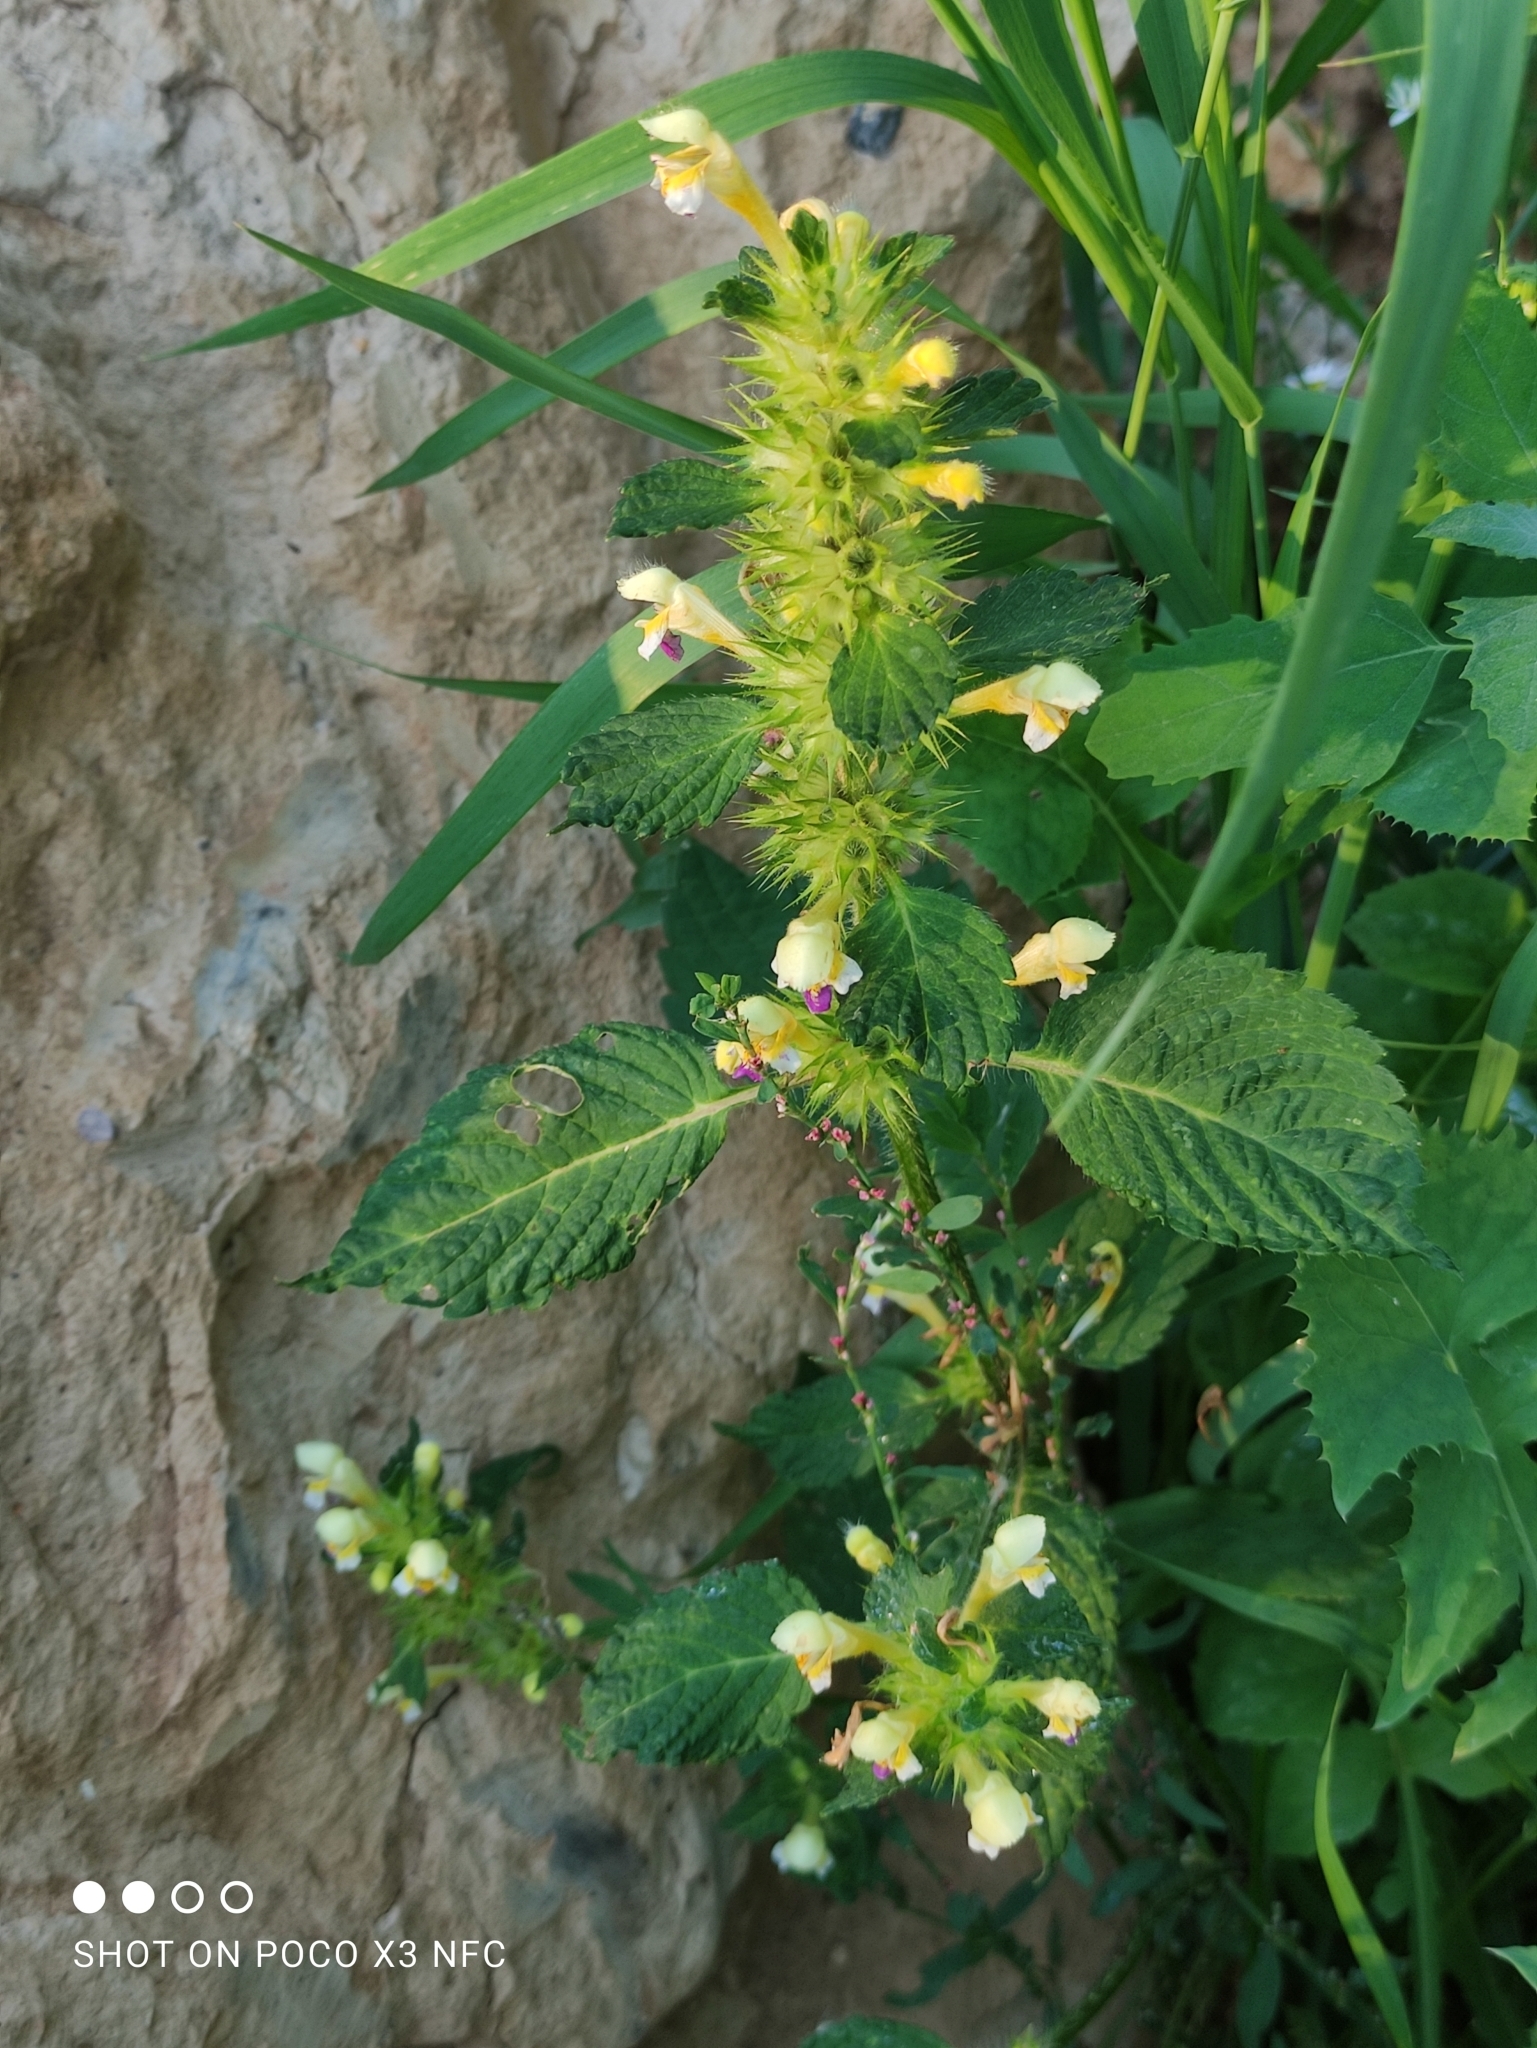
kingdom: Plantae
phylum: Tracheophyta
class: Magnoliopsida
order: Lamiales
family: Lamiaceae
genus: Galeopsis
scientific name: Galeopsis speciosa
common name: Large-flowered hemp-nettle
